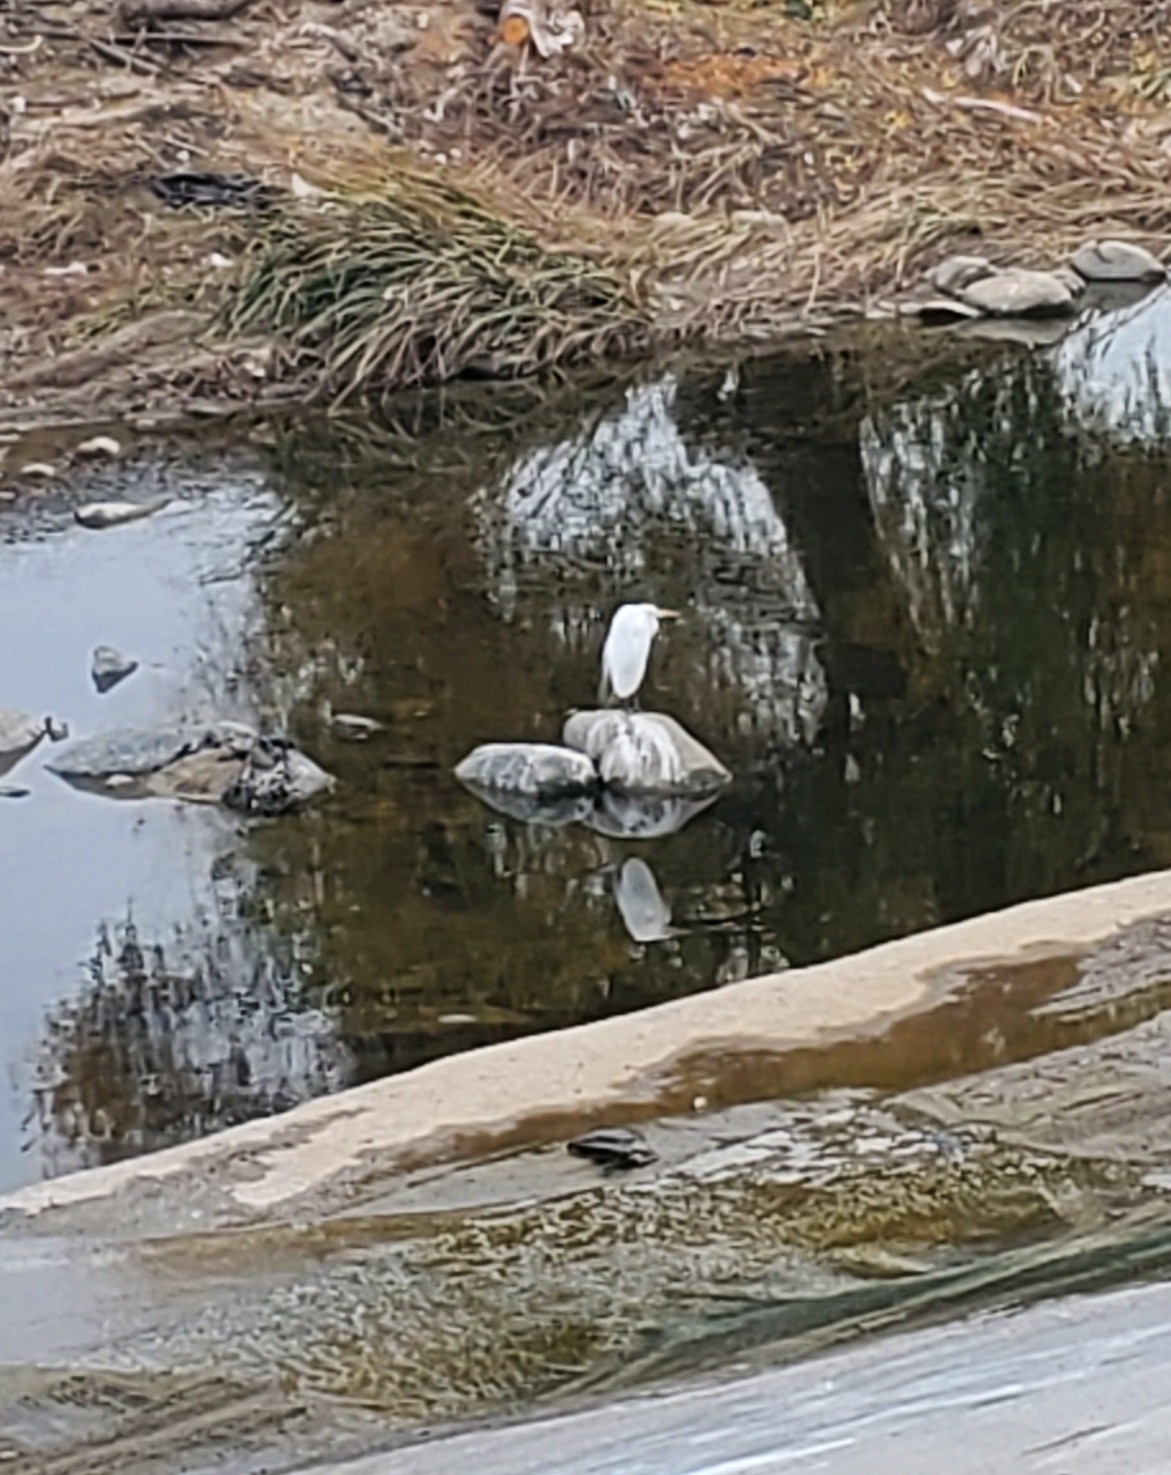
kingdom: Animalia
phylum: Chordata
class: Aves
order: Pelecaniformes
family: Ardeidae
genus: Ardea
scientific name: Ardea alba
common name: Great egret
